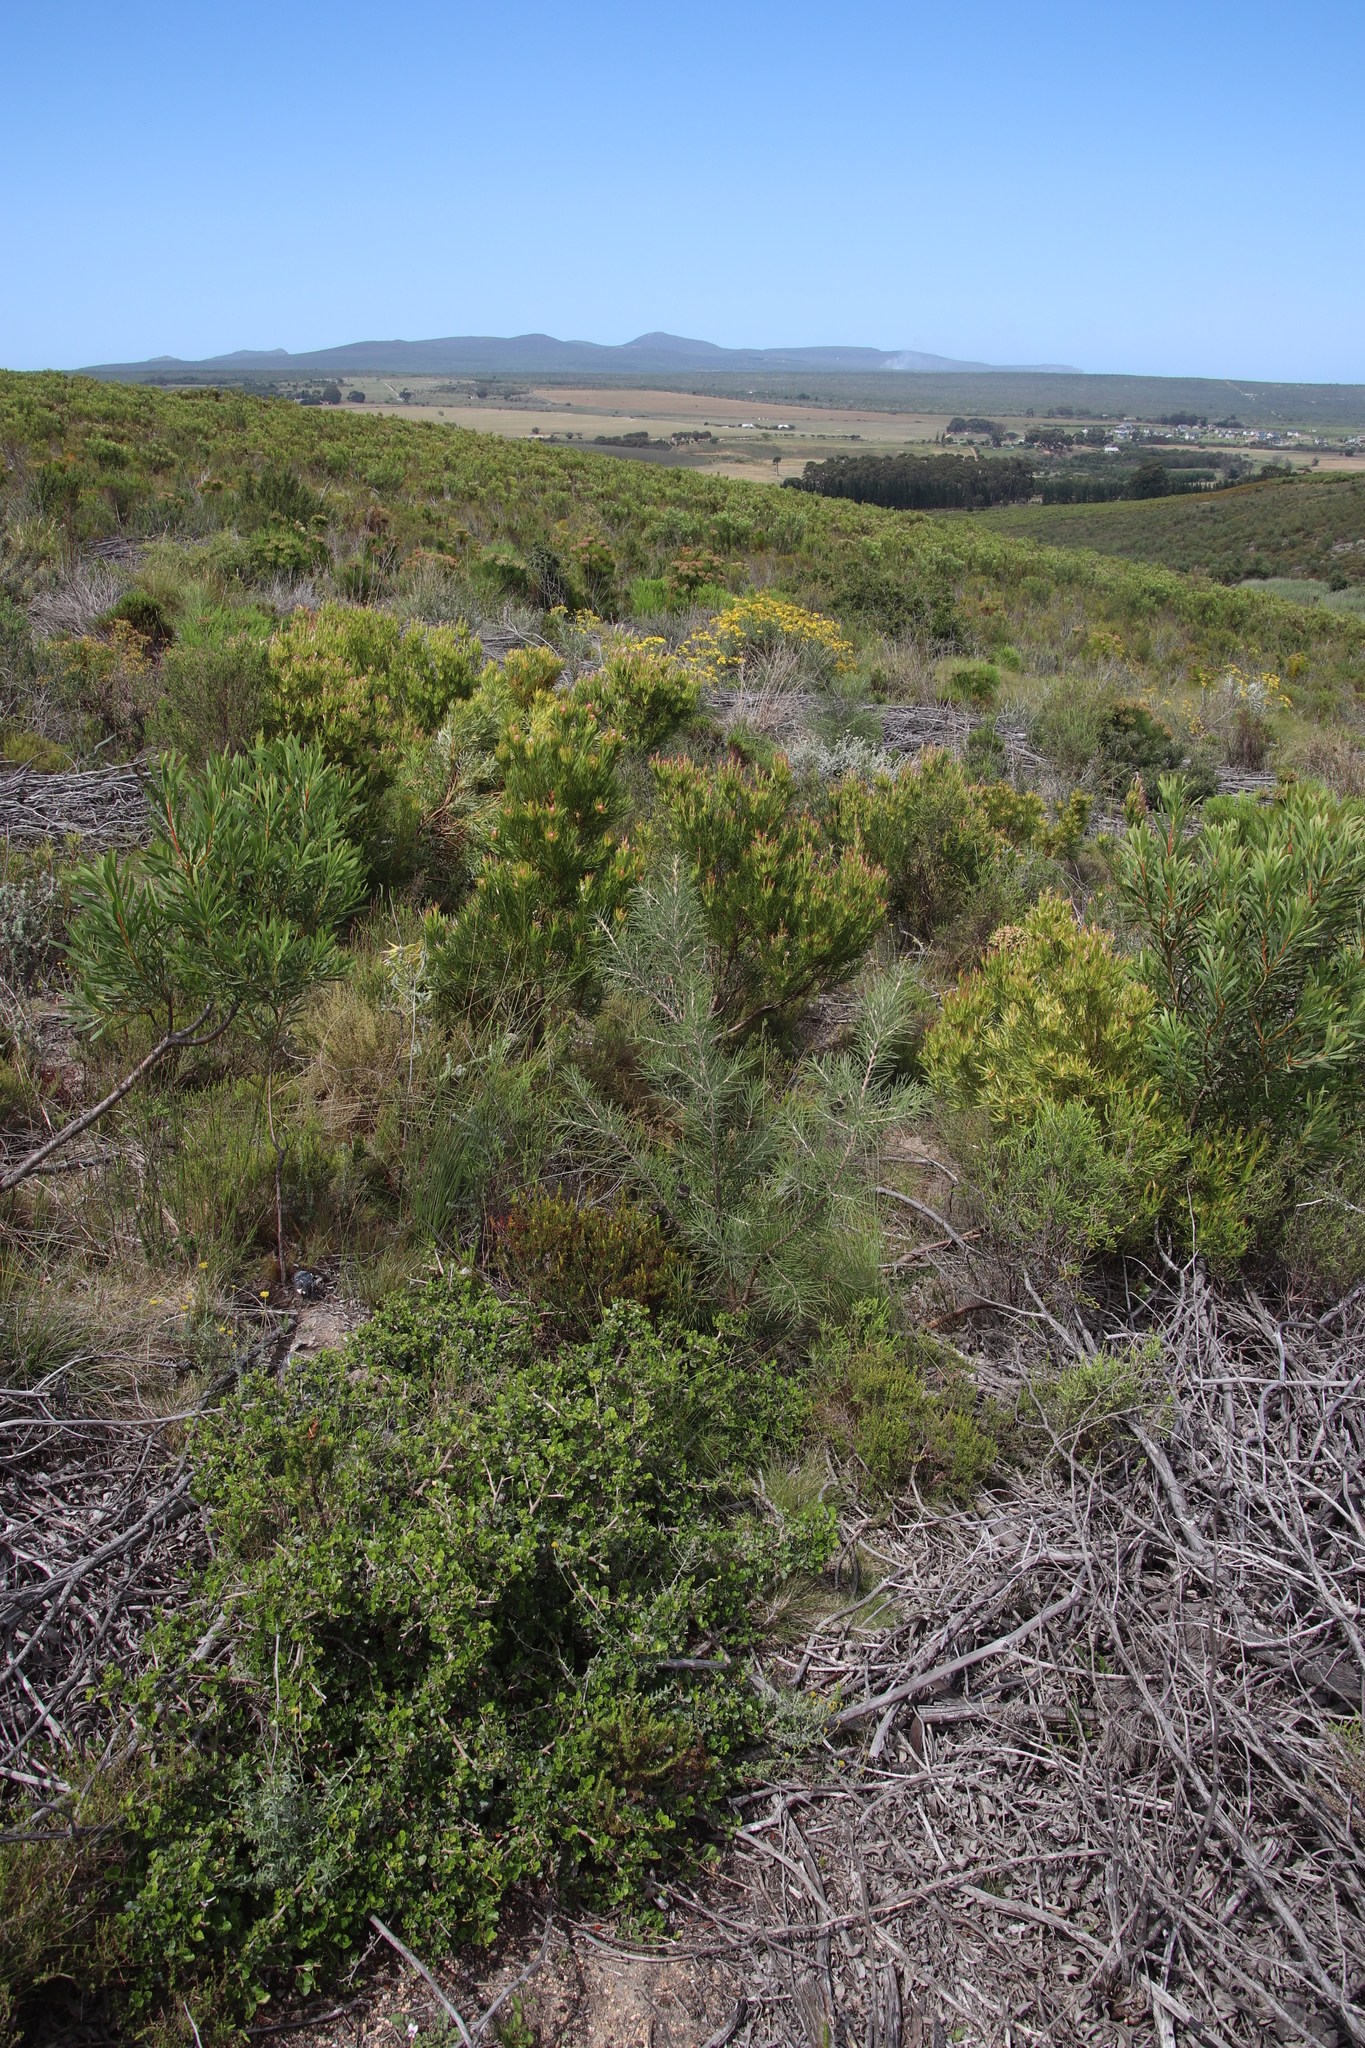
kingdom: Plantae
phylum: Tracheophyta
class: Magnoliopsida
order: Proteales
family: Proteaceae
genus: Hakea
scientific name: Hakea gibbosa
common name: Rock hakea
